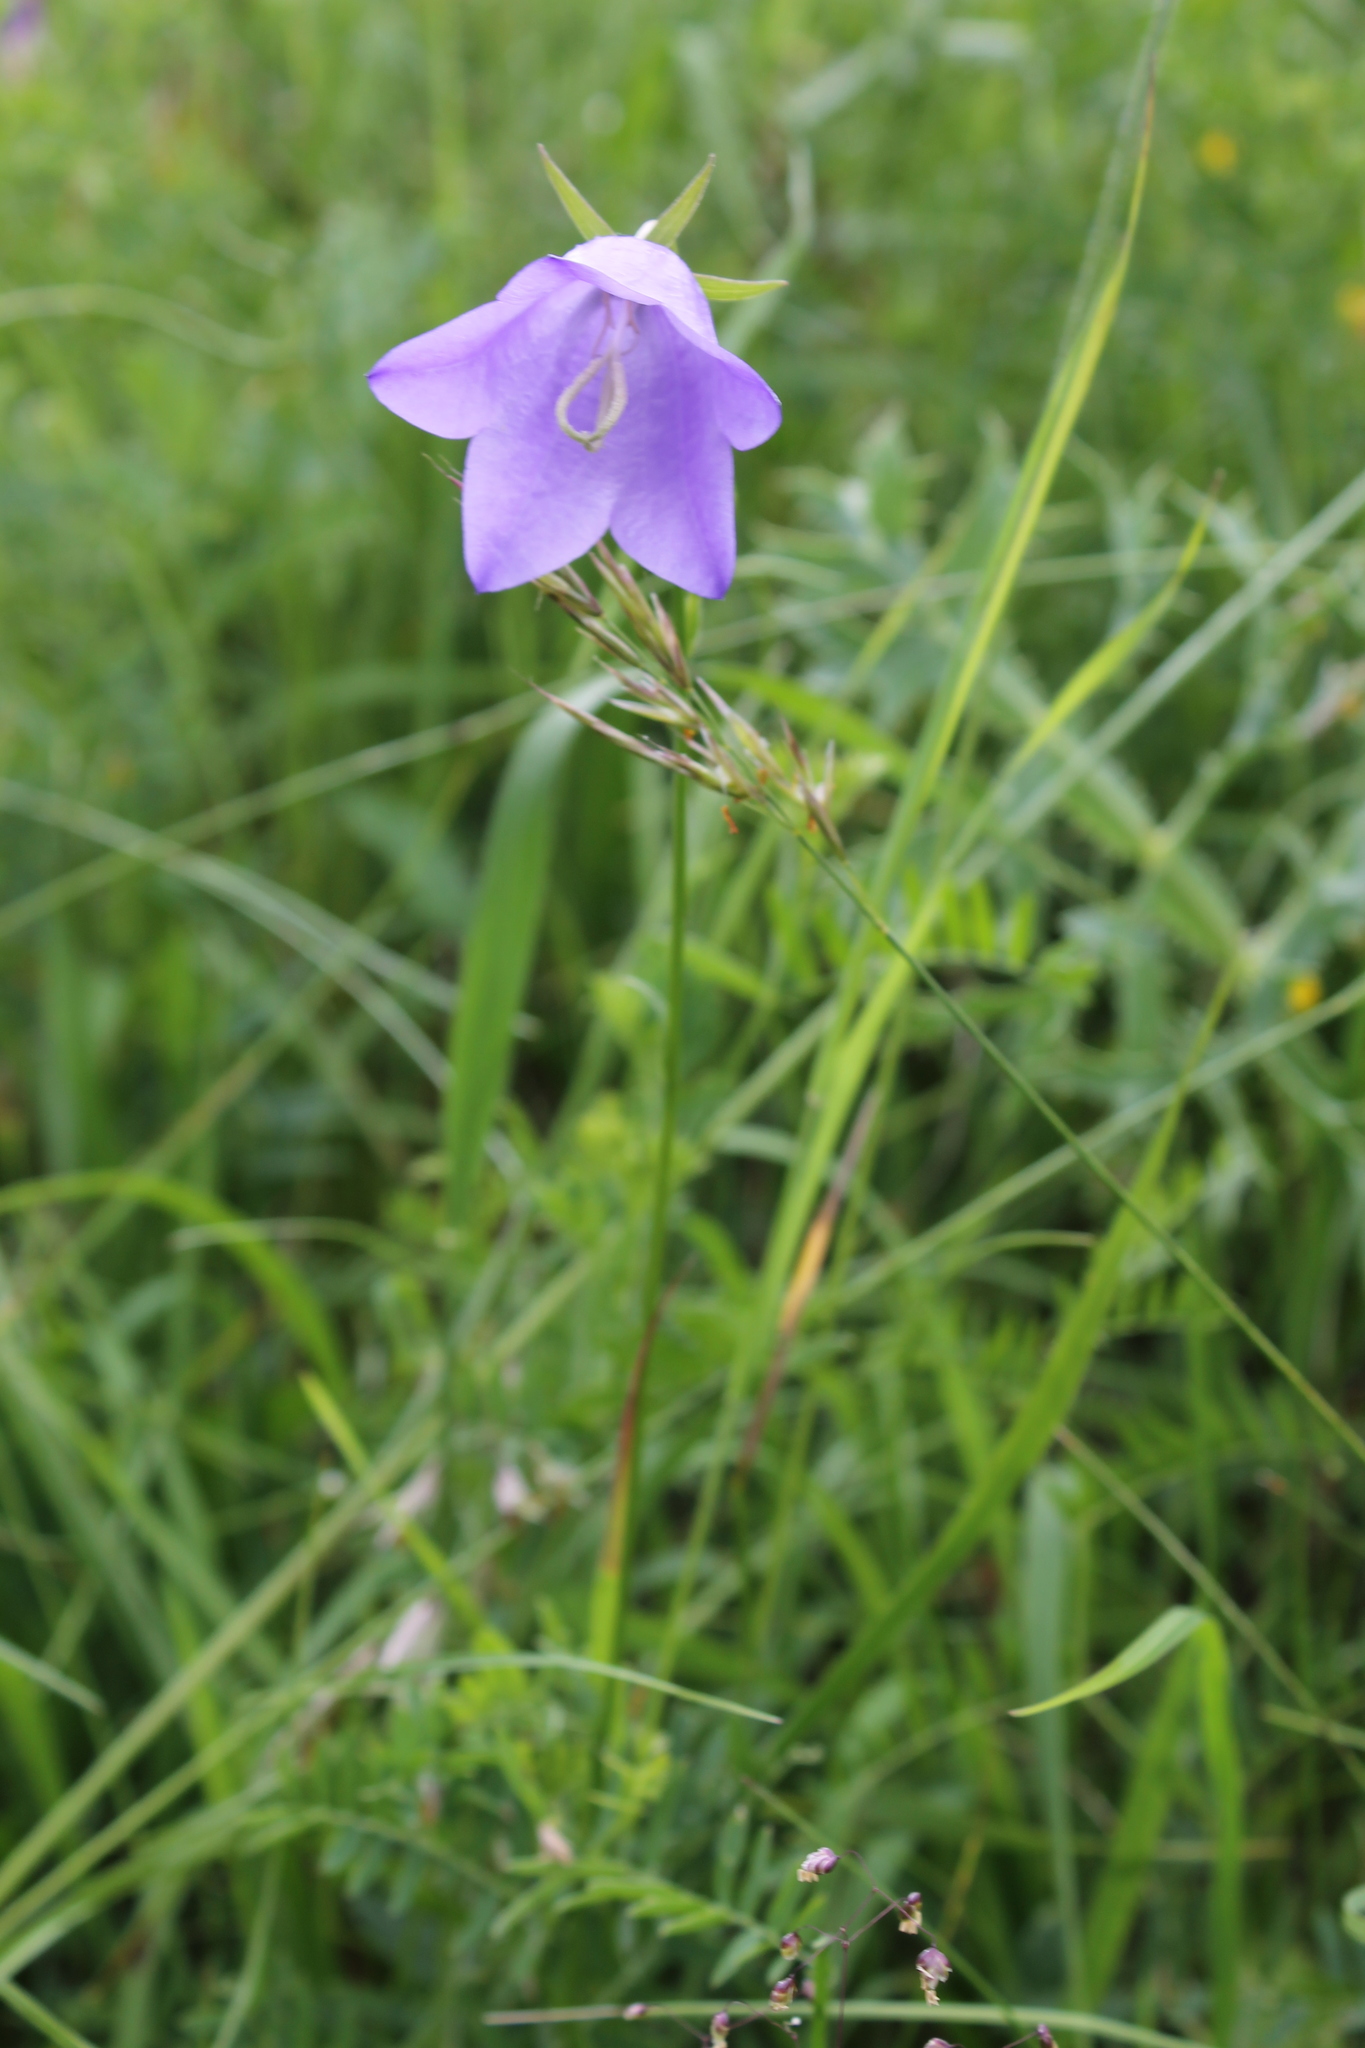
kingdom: Plantae
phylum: Tracheophyta
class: Magnoliopsida
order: Asterales
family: Campanulaceae
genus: Campanula
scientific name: Campanula persicifolia
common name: Peach-leaved bellflower
